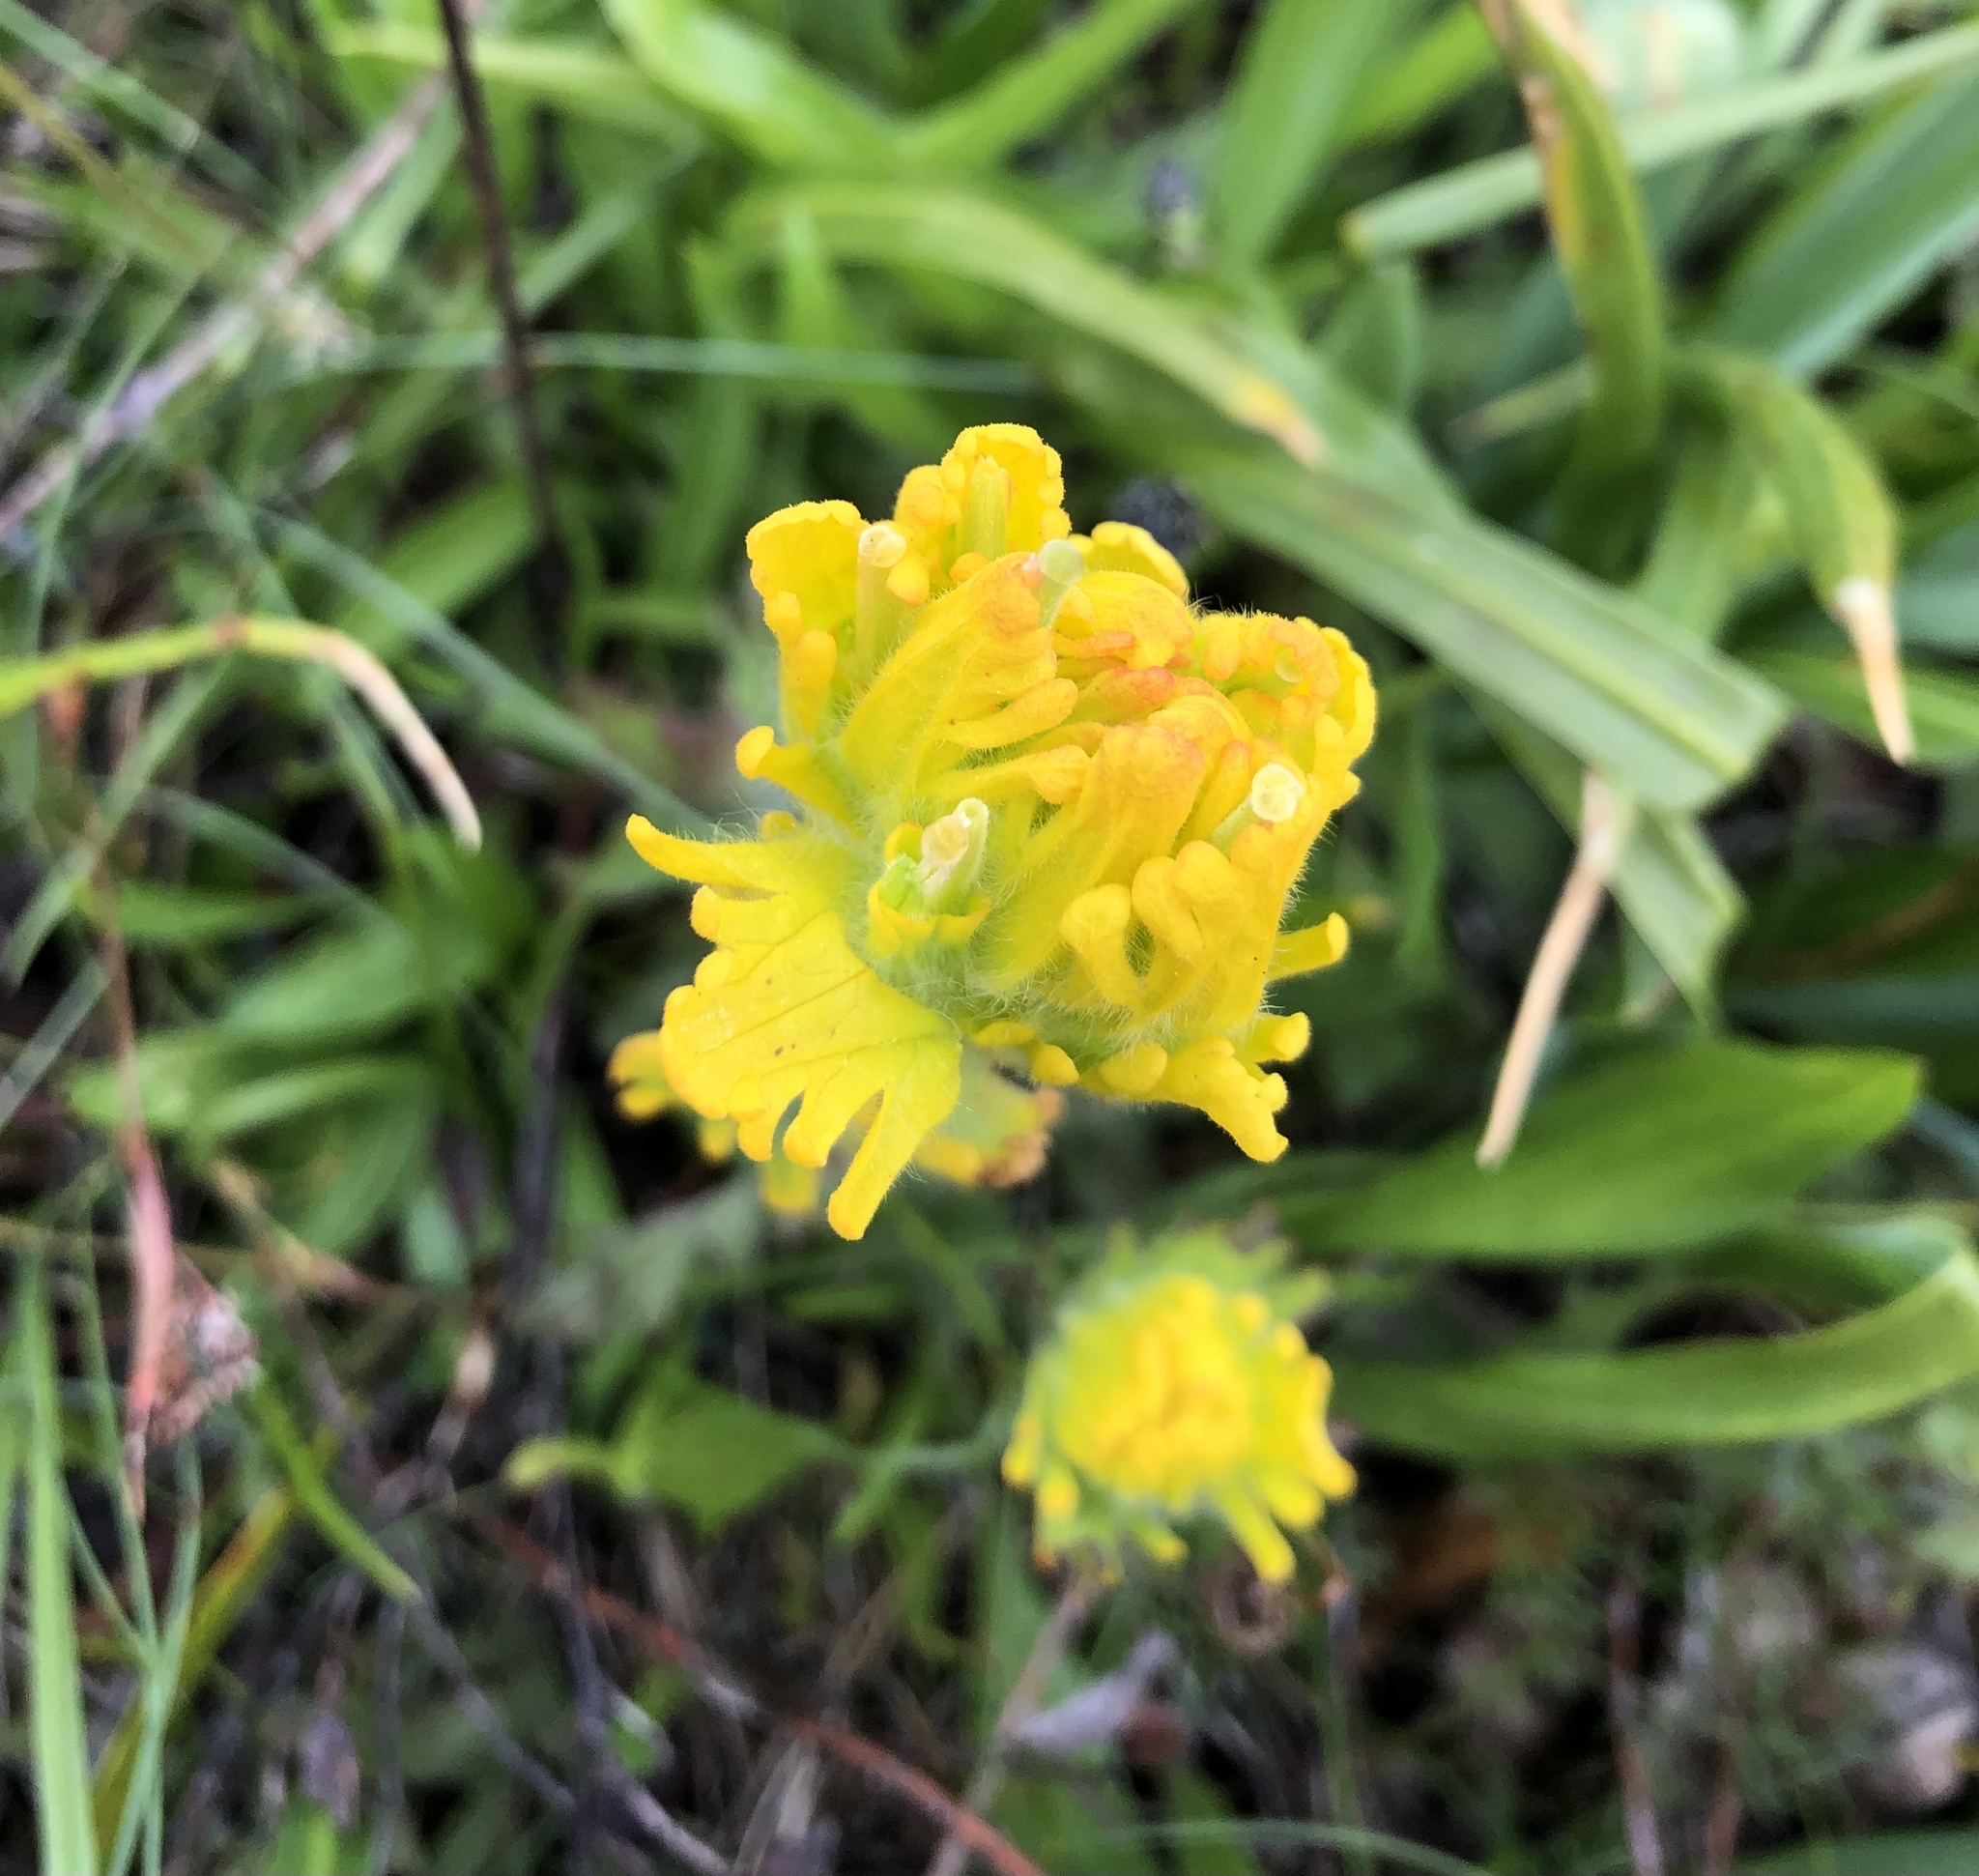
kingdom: Plantae
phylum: Tracheophyta
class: Magnoliopsida
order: Lamiales
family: Orobanchaceae
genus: Castilleja
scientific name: Castilleja levisecta
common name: Golden paintbrush
